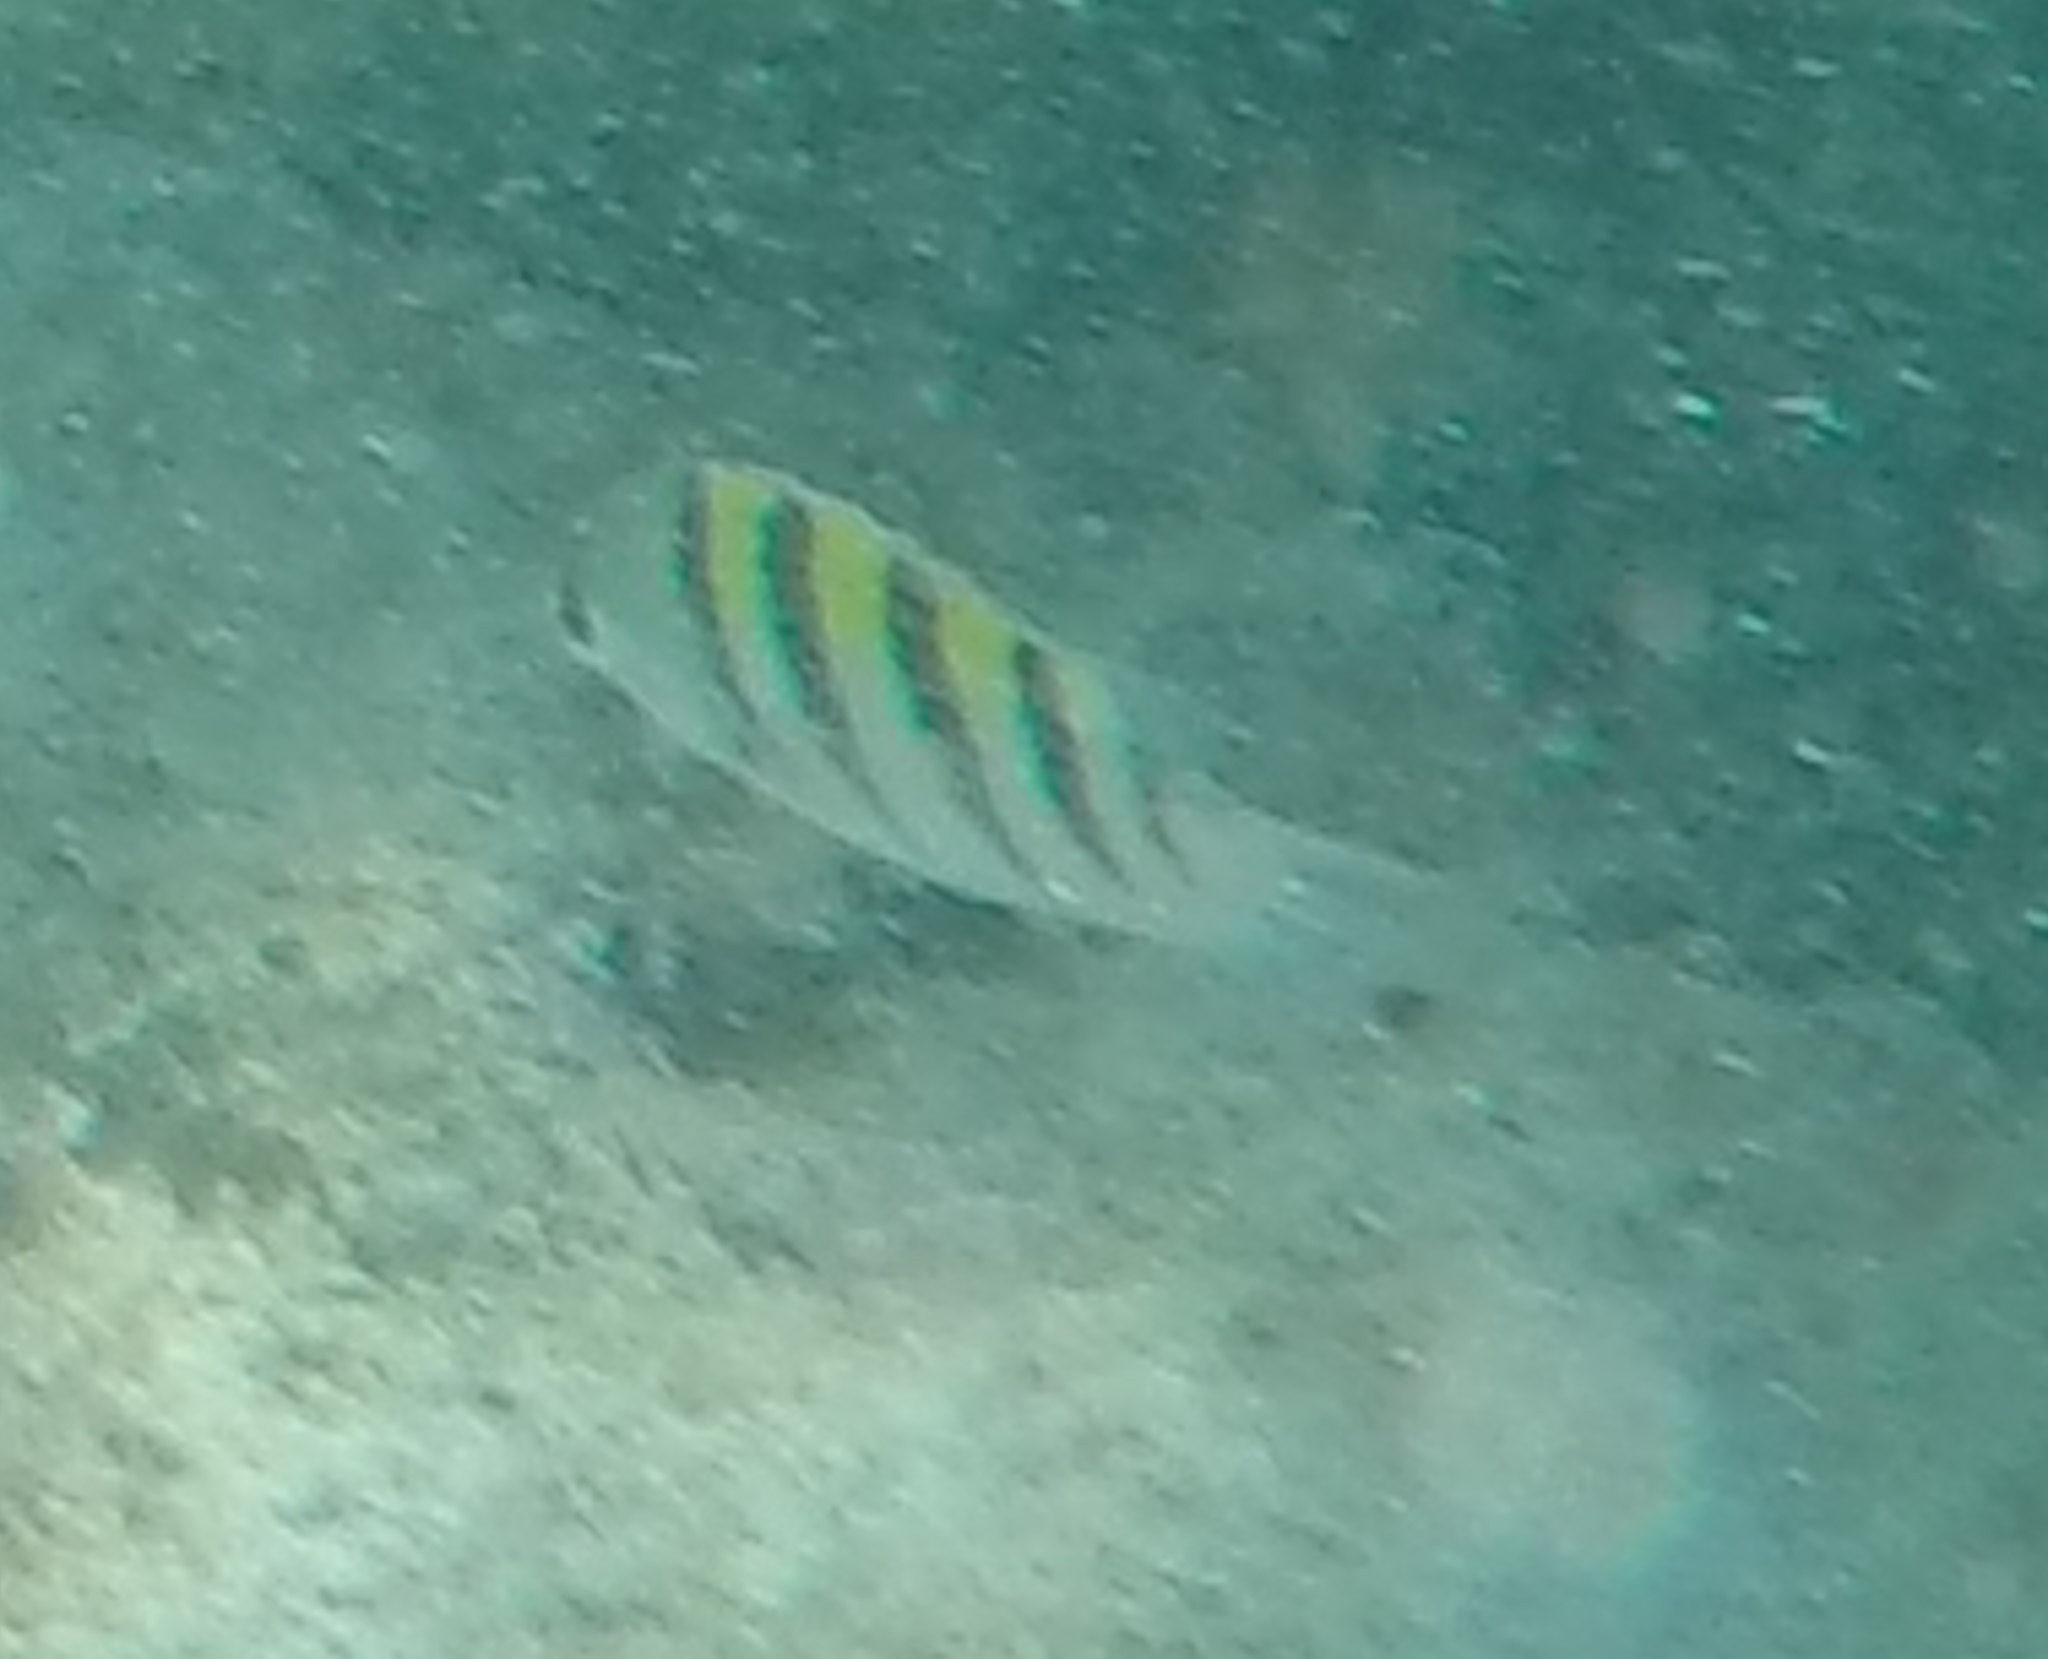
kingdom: Animalia
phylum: Chordata
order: Perciformes
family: Pomacentridae
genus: Abudefduf
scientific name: Abudefduf saxatilis
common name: Sergeant major
